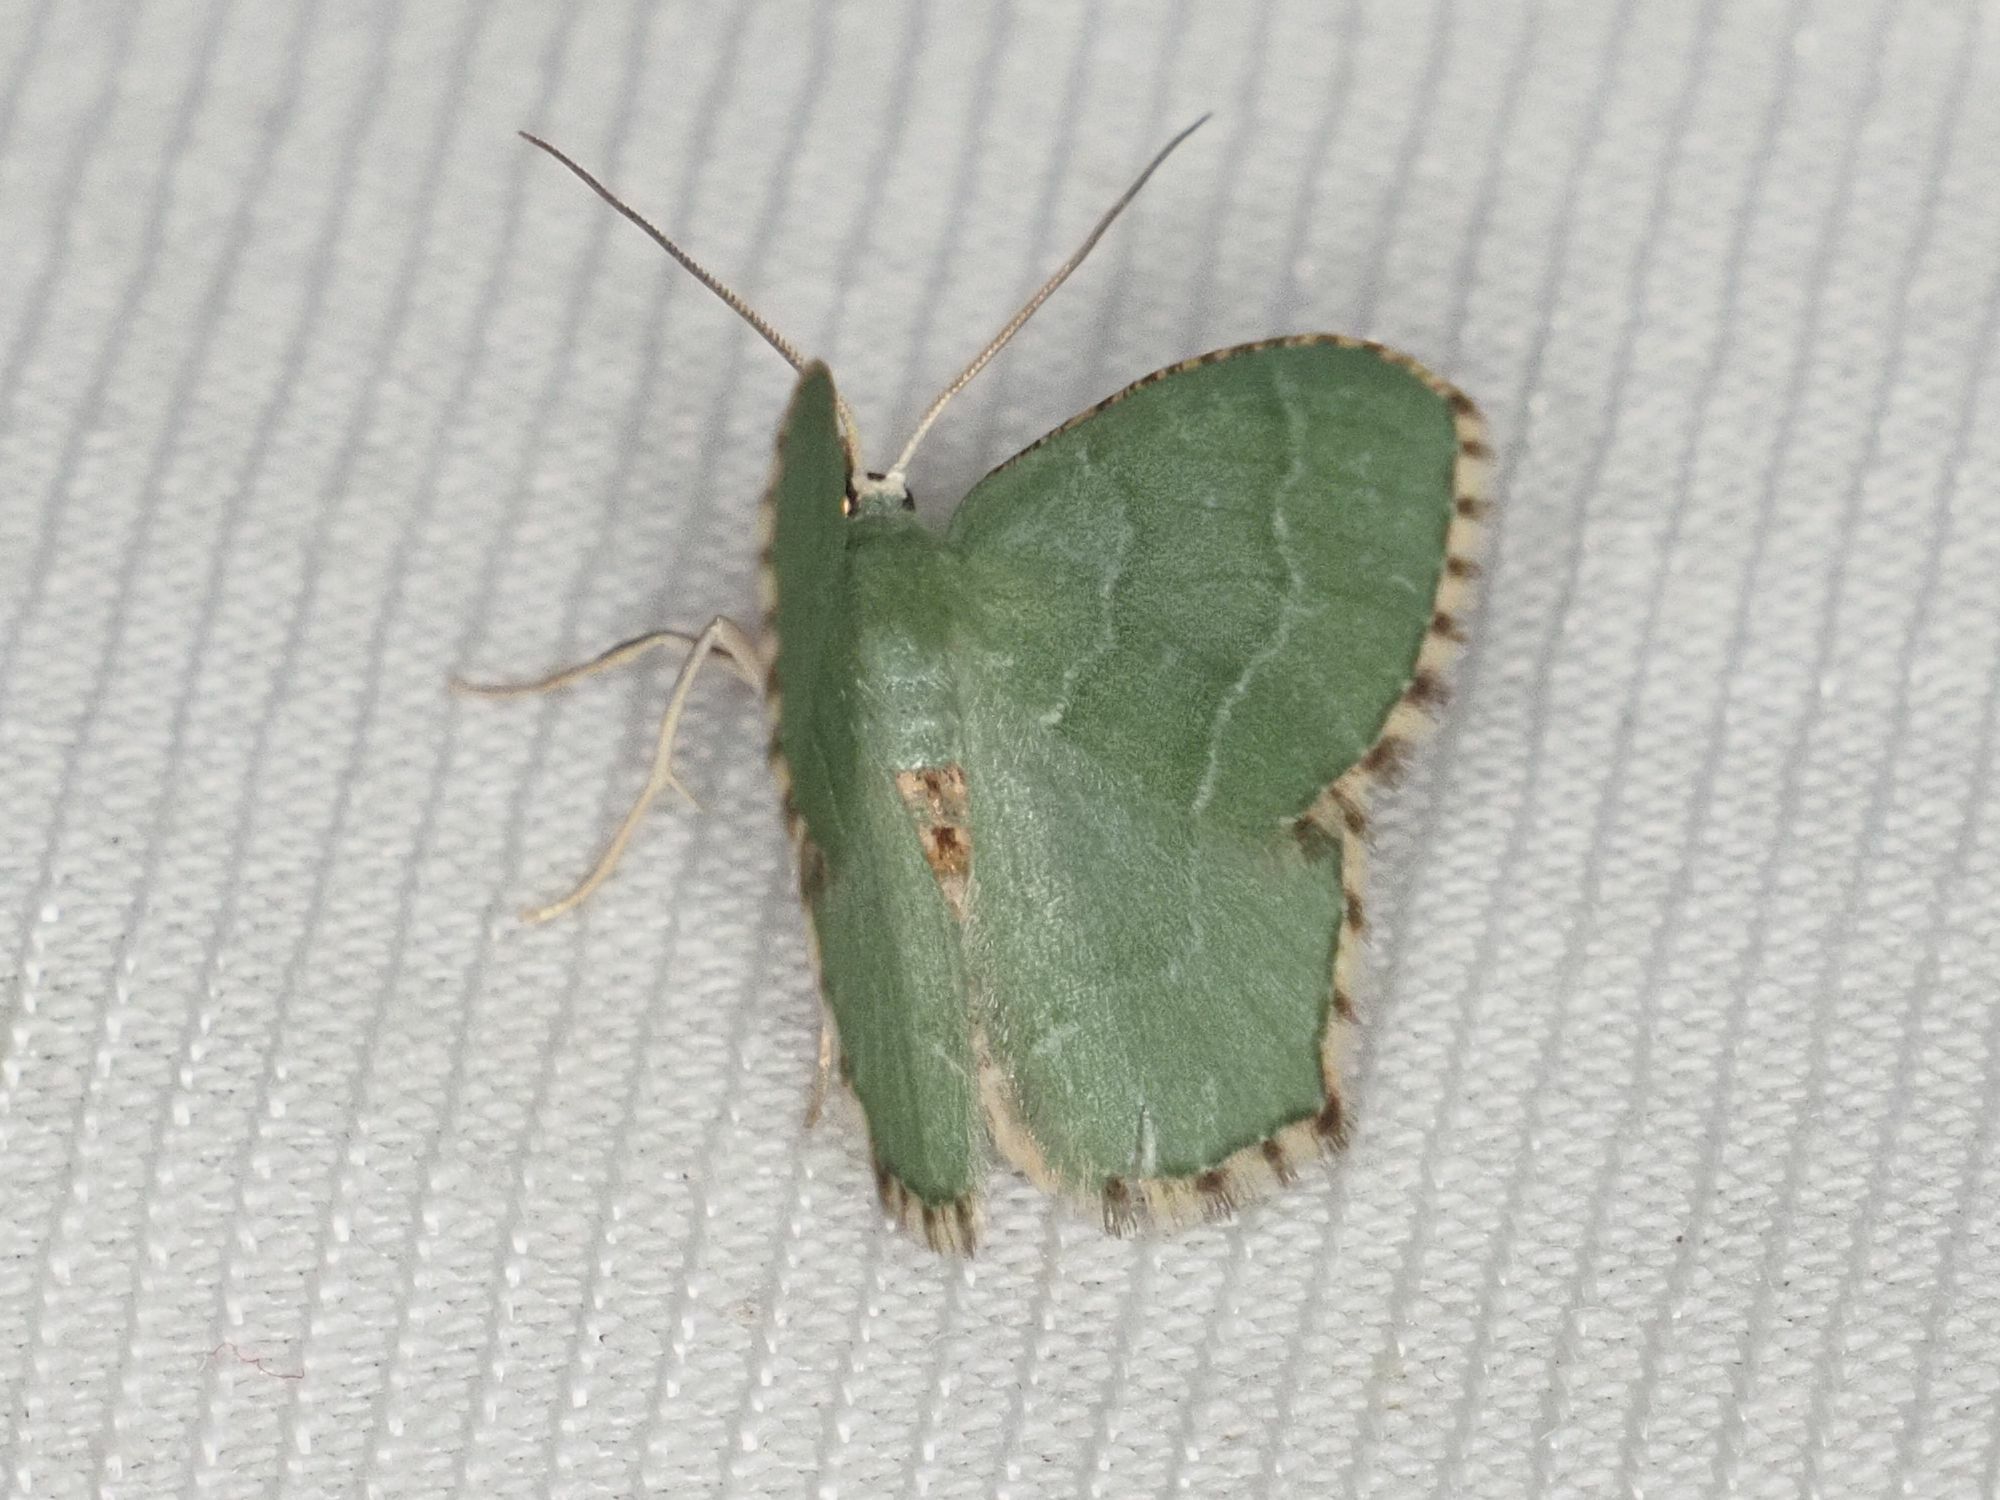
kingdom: Animalia
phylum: Arthropoda
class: Insecta
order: Lepidoptera
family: Geometridae
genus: Hemithea
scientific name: Hemithea aestivaria
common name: Common emerald
